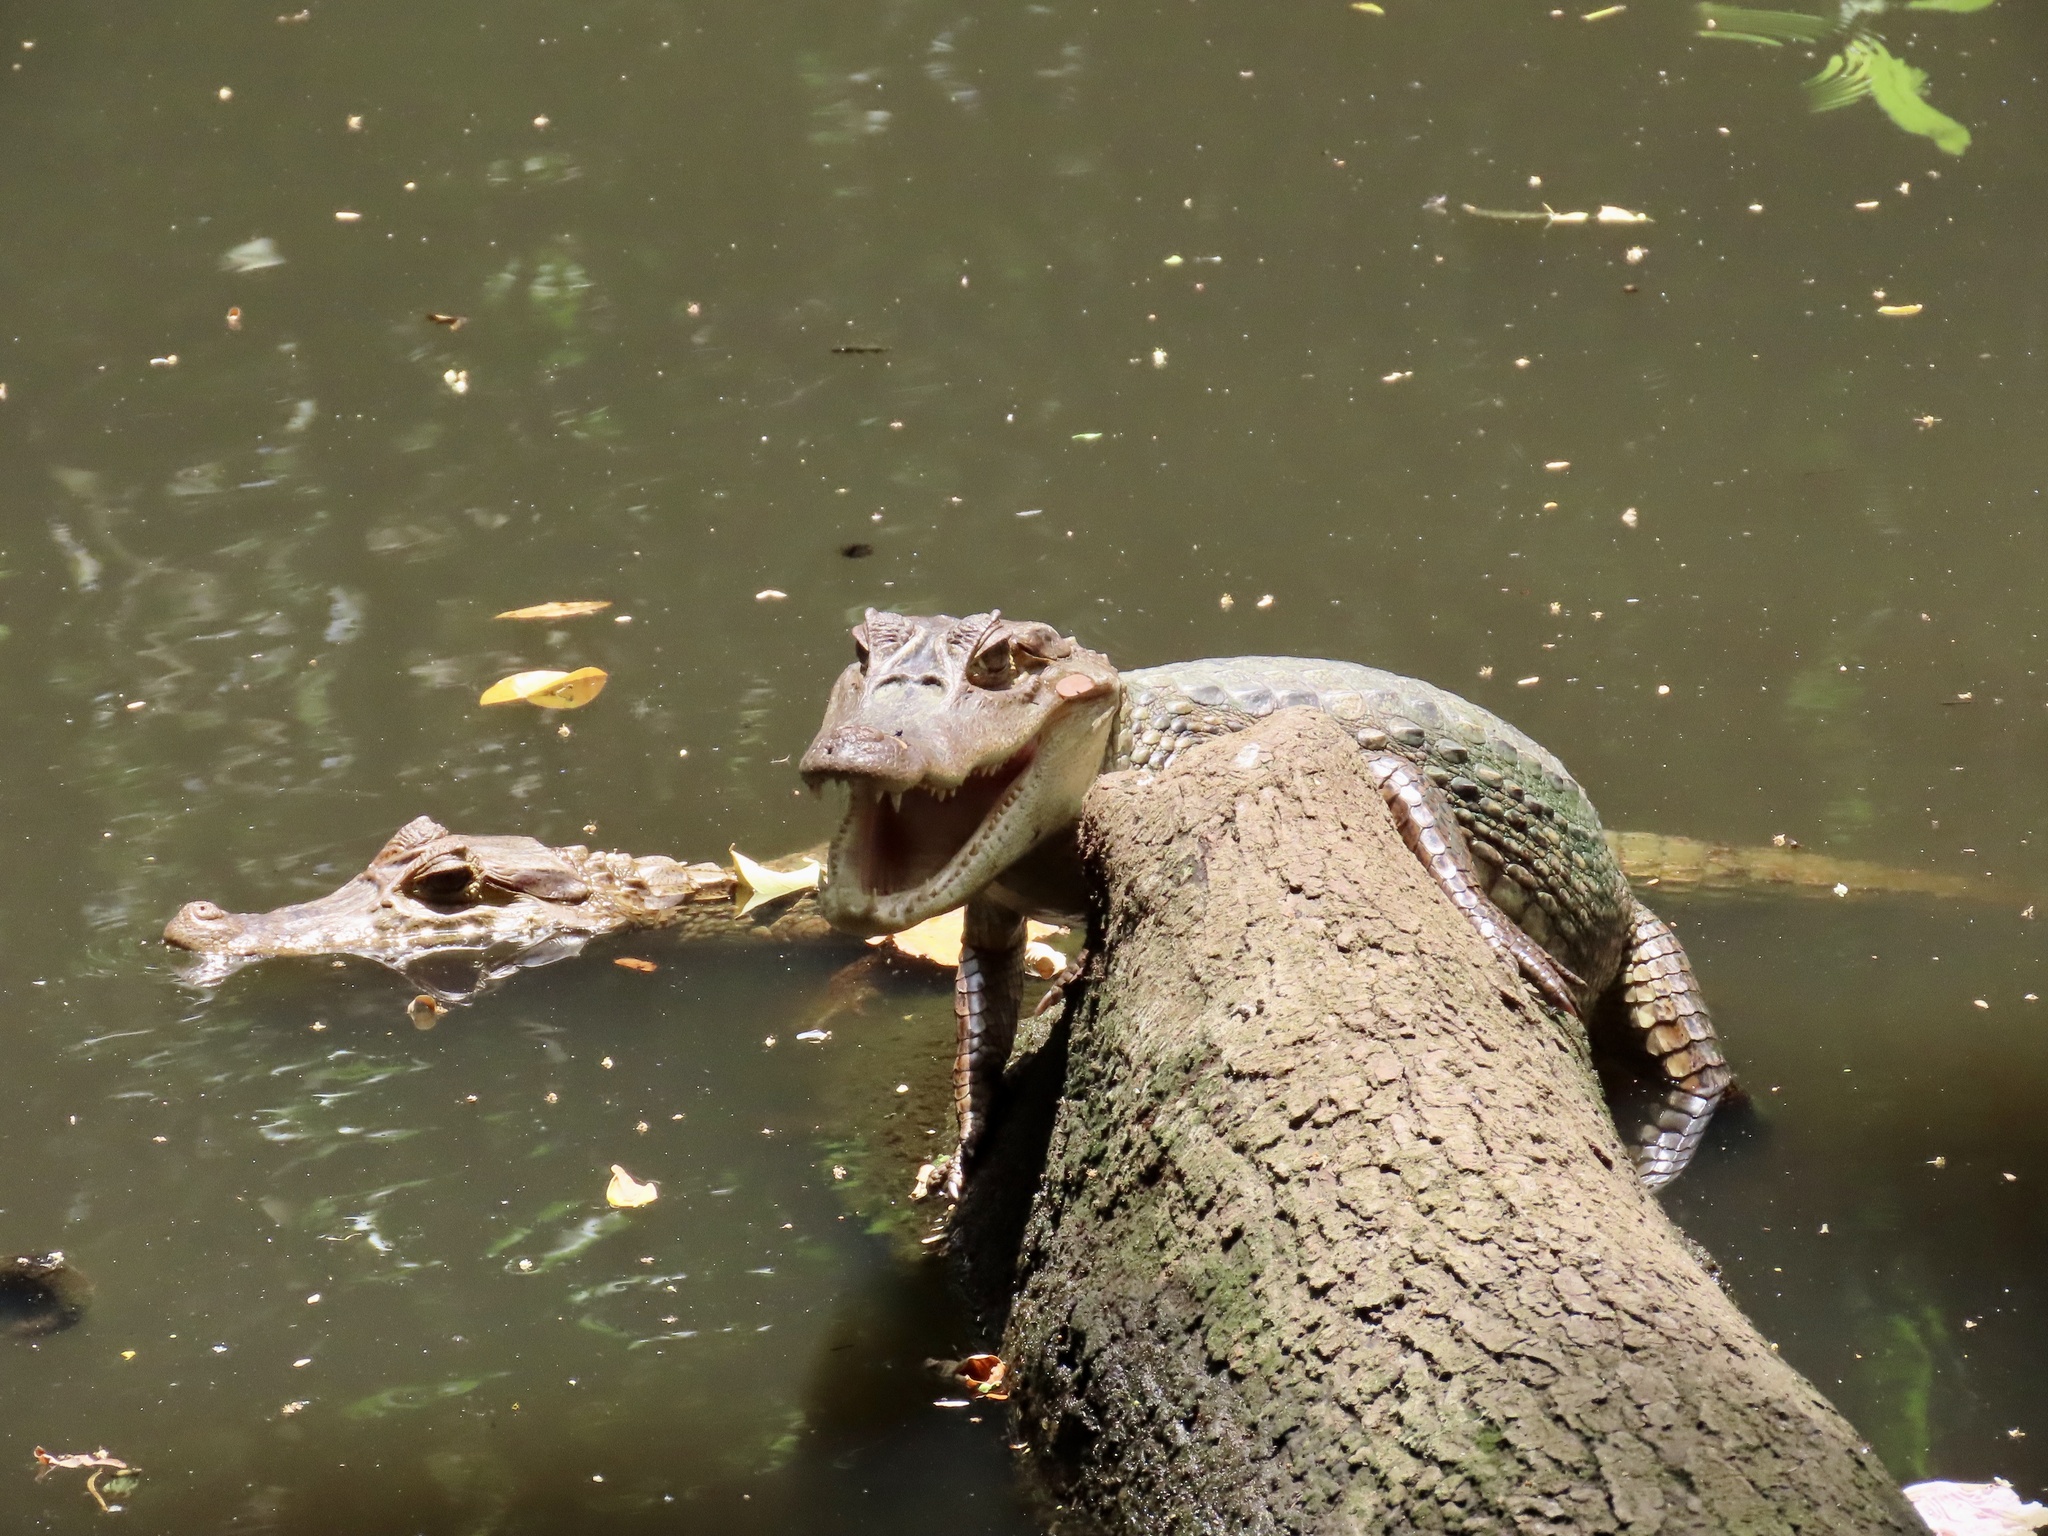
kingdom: Animalia
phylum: Chordata
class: Crocodylia
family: Alligatoridae
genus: Caiman
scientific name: Caiman crocodilus
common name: Common caiman
